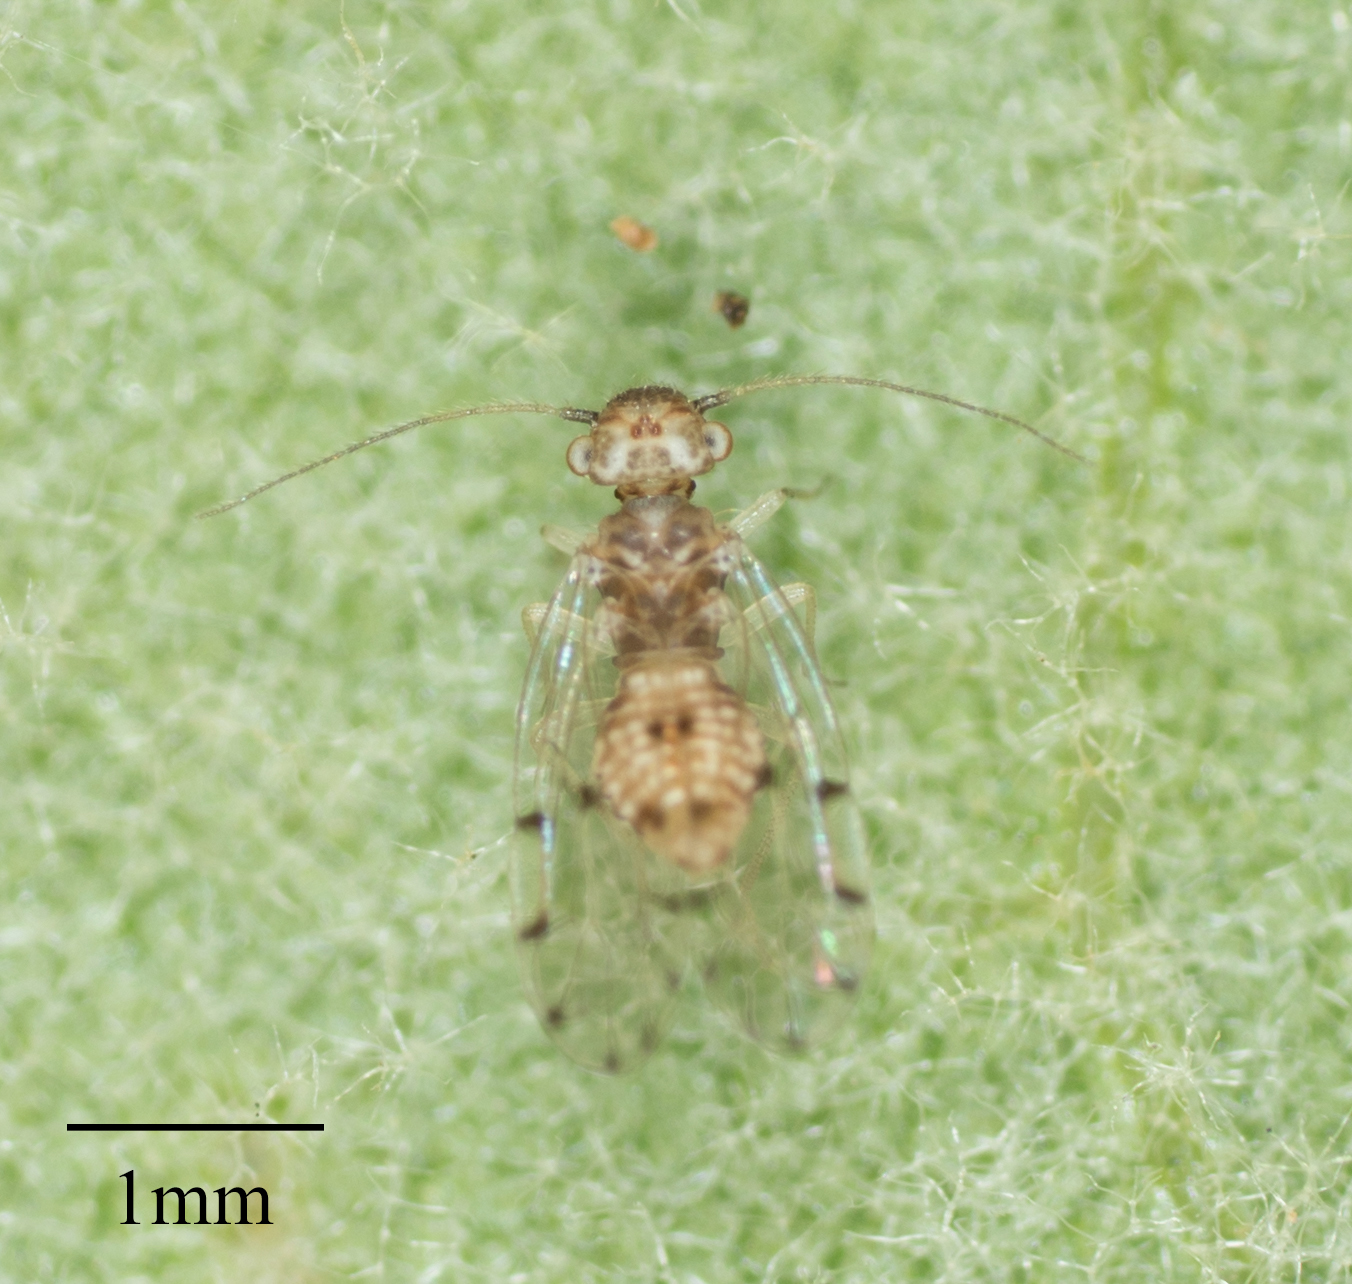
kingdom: Animalia
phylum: Arthropoda
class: Insecta
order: Psocodea
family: Ectopsocidae
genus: Ectopsocus
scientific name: Ectopsocus californicus
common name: Bark lice
